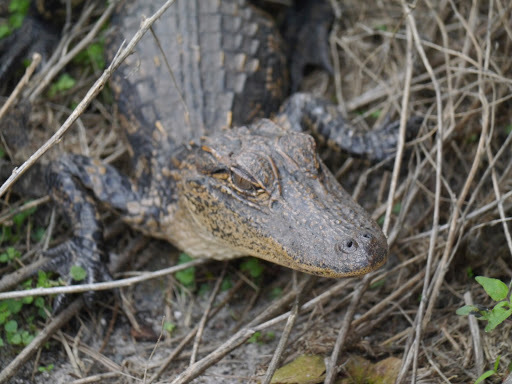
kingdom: Animalia
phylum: Chordata
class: Crocodylia
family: Alligatoridae
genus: Alligator
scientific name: Alligator mississippiensis
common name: American alligator
